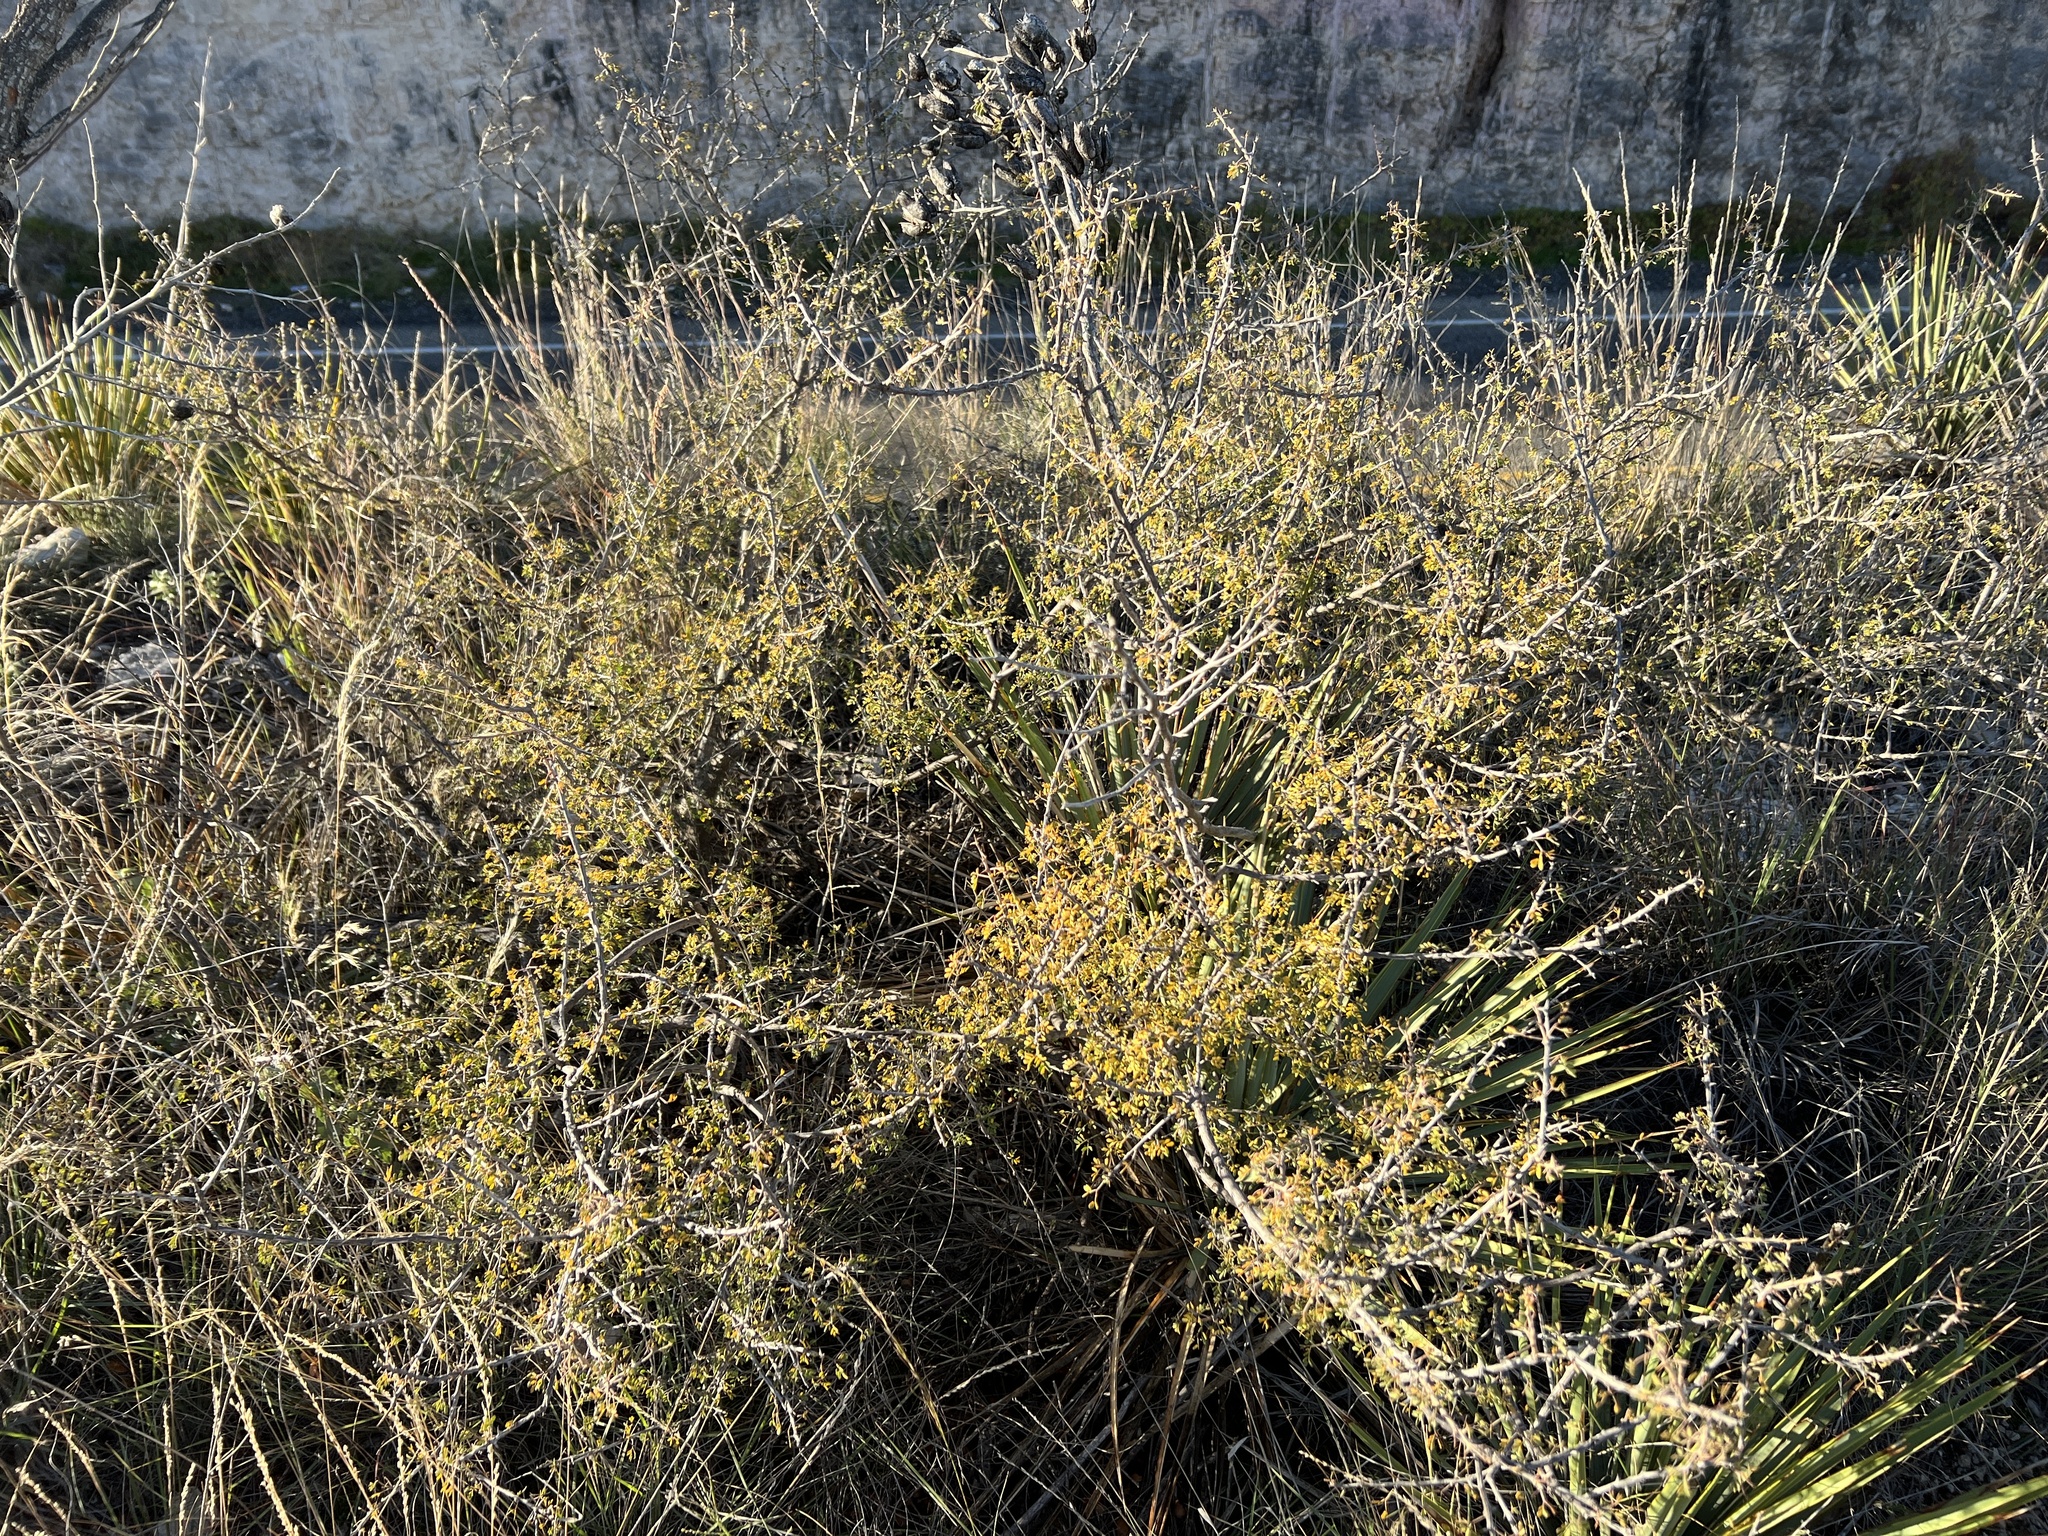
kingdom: Plantae
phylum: Tracheophyta
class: Magnoliopsida
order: Fabales
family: Fabaceae
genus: Mimosa
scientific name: Mimosa borealis
